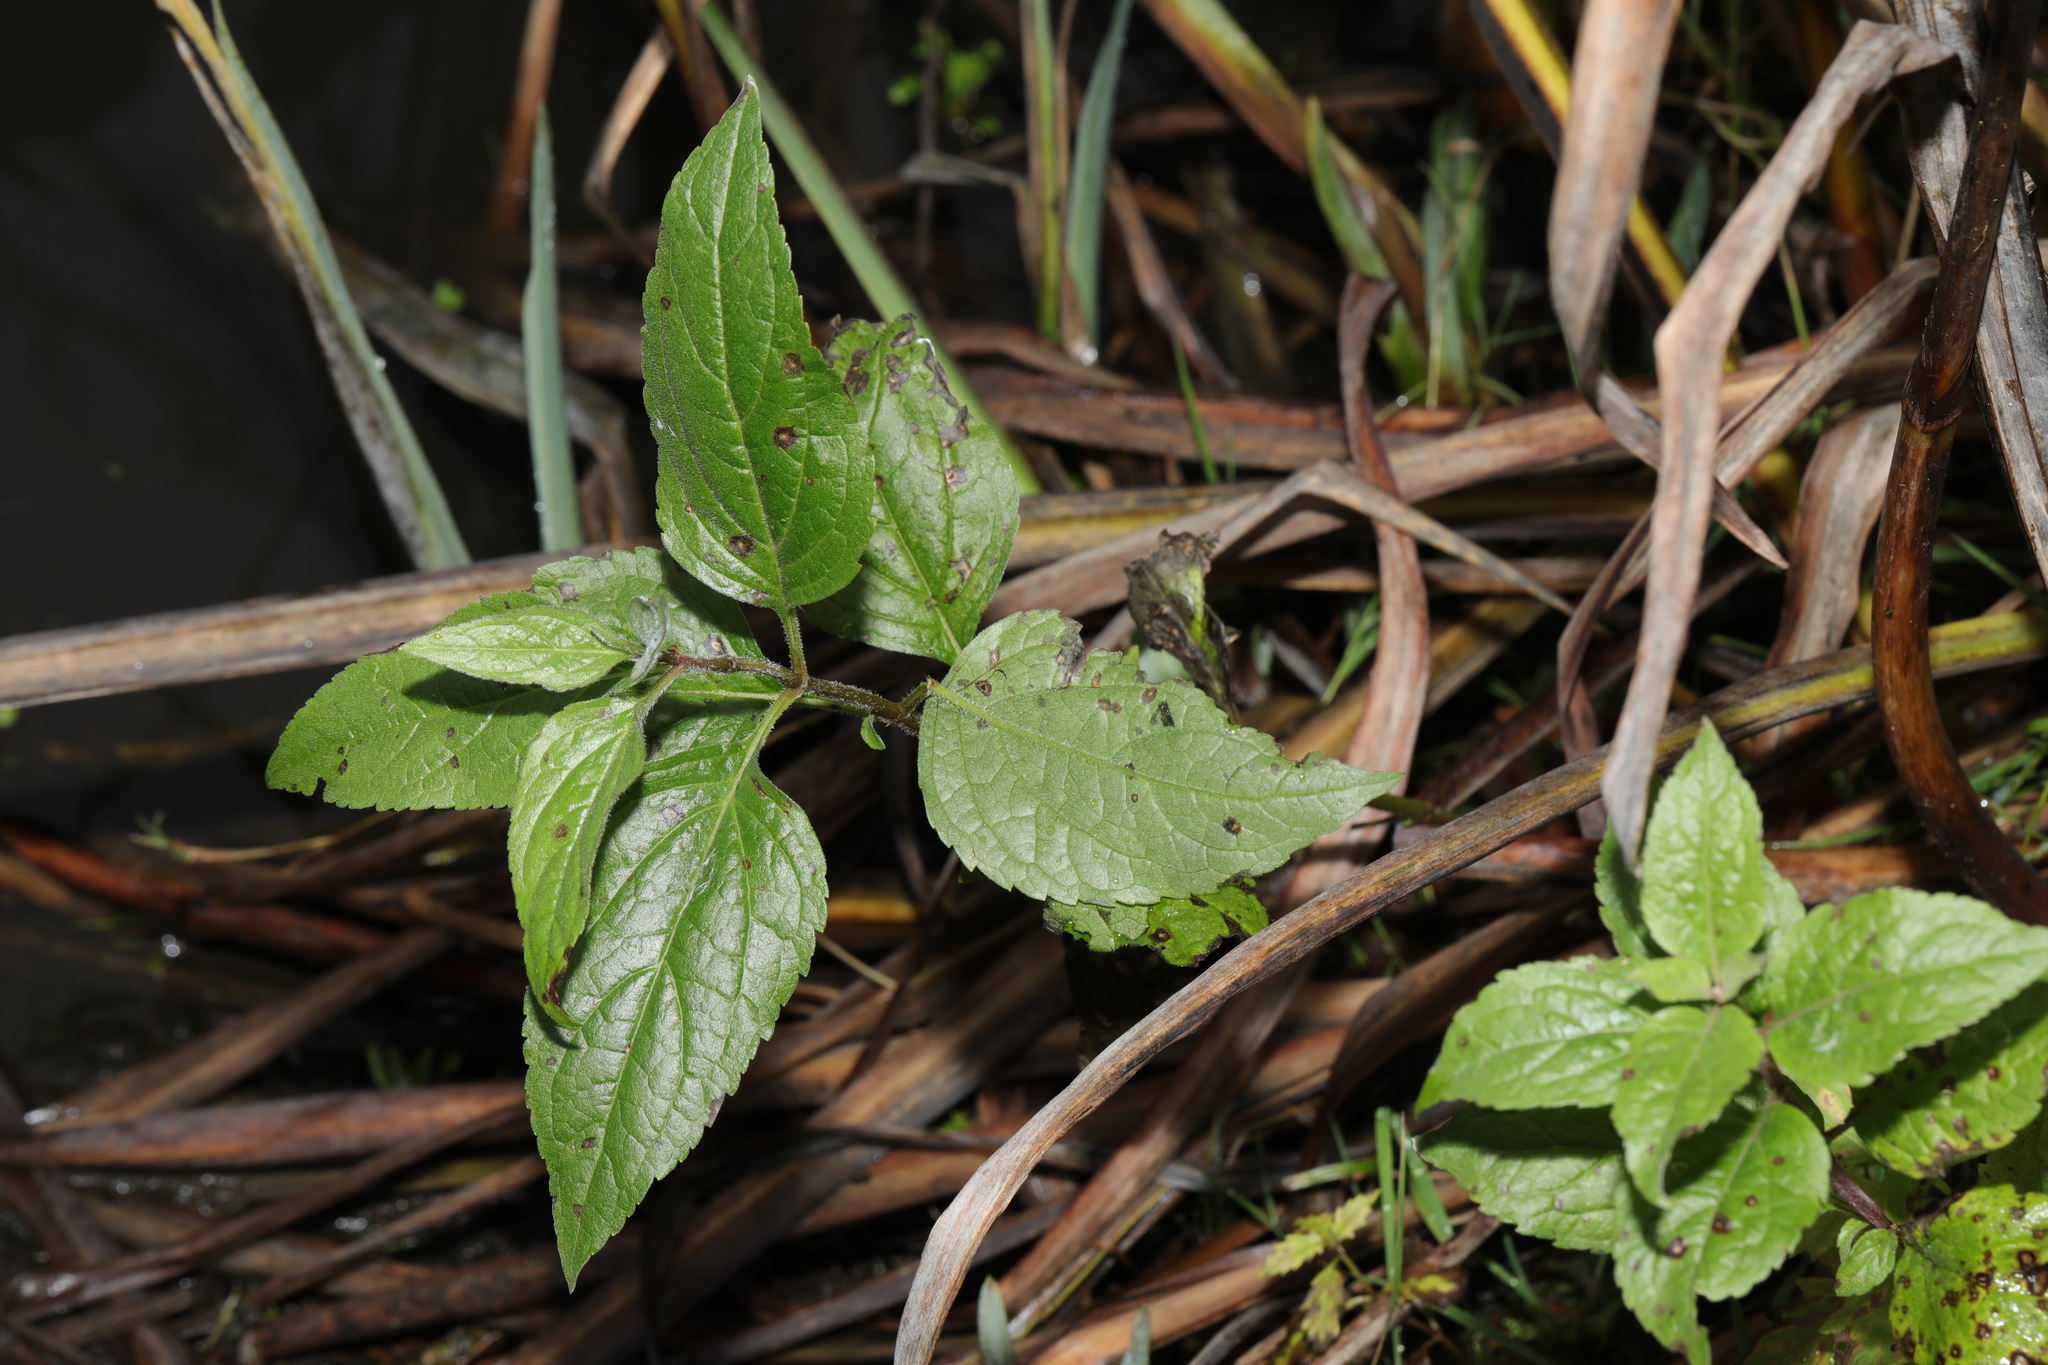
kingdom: Plantae
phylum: Tracheophyta
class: Magnoliopsida
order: Asterales
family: Asteraceae
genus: Eupatorium
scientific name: Eupatorium cannabinum
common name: Hemp-agrimony
